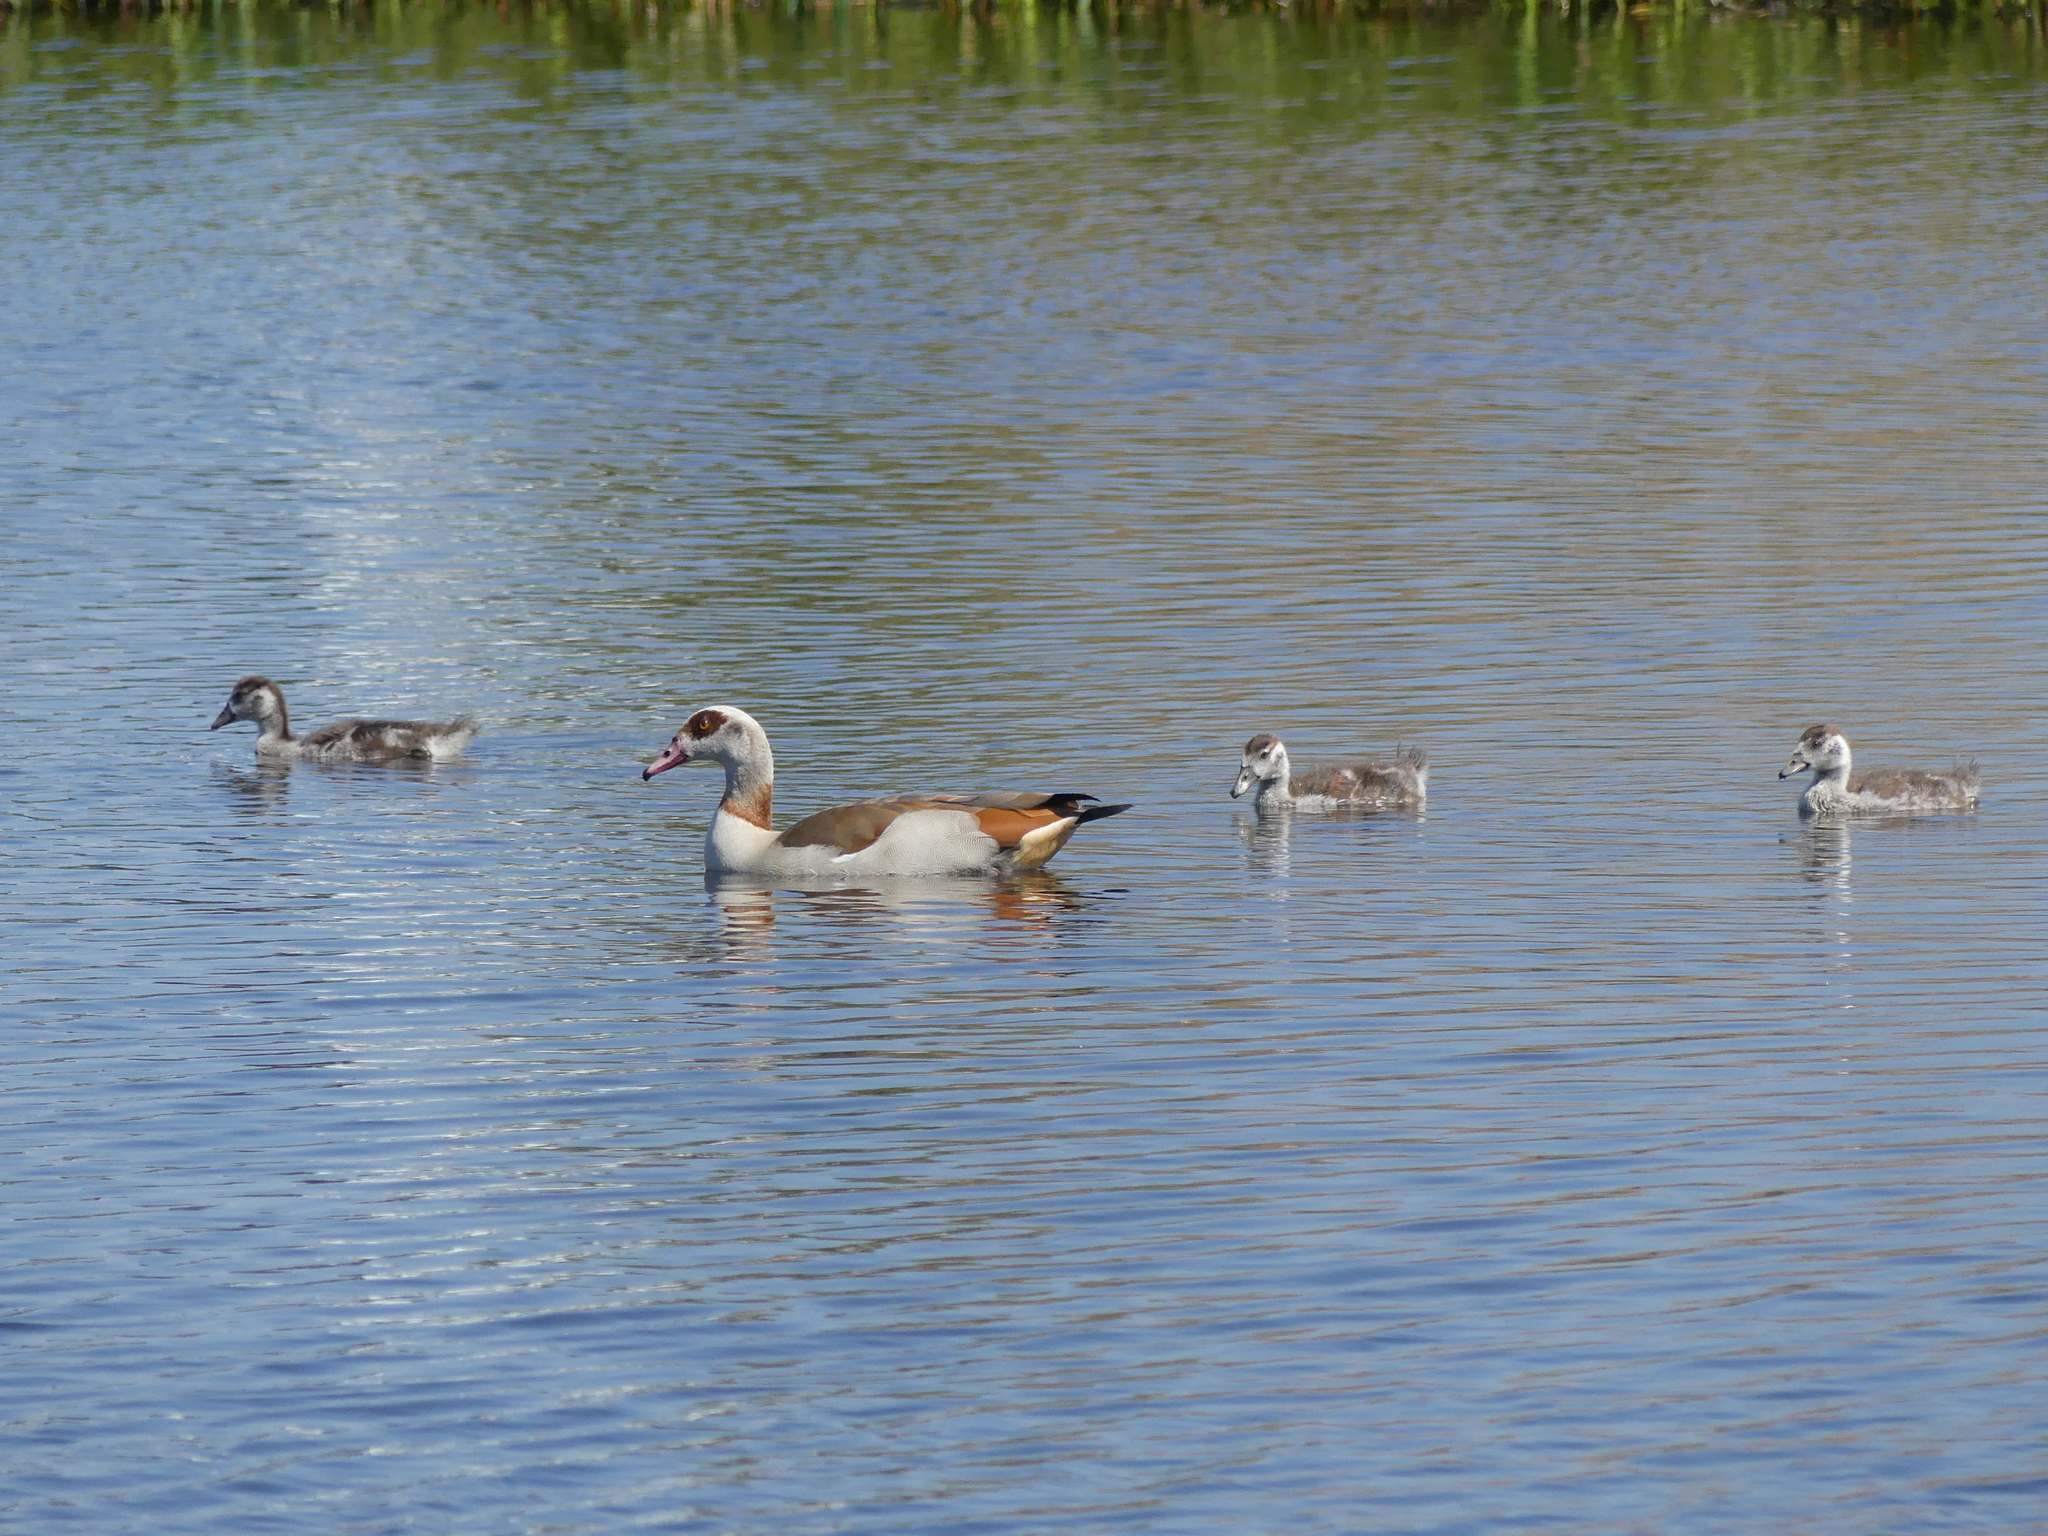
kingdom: Animalia
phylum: Chordata
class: Aves
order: Anseriformes
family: Anatidae
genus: Alopochen
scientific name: Alopochen aegyptiaca
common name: Egyptian goose
